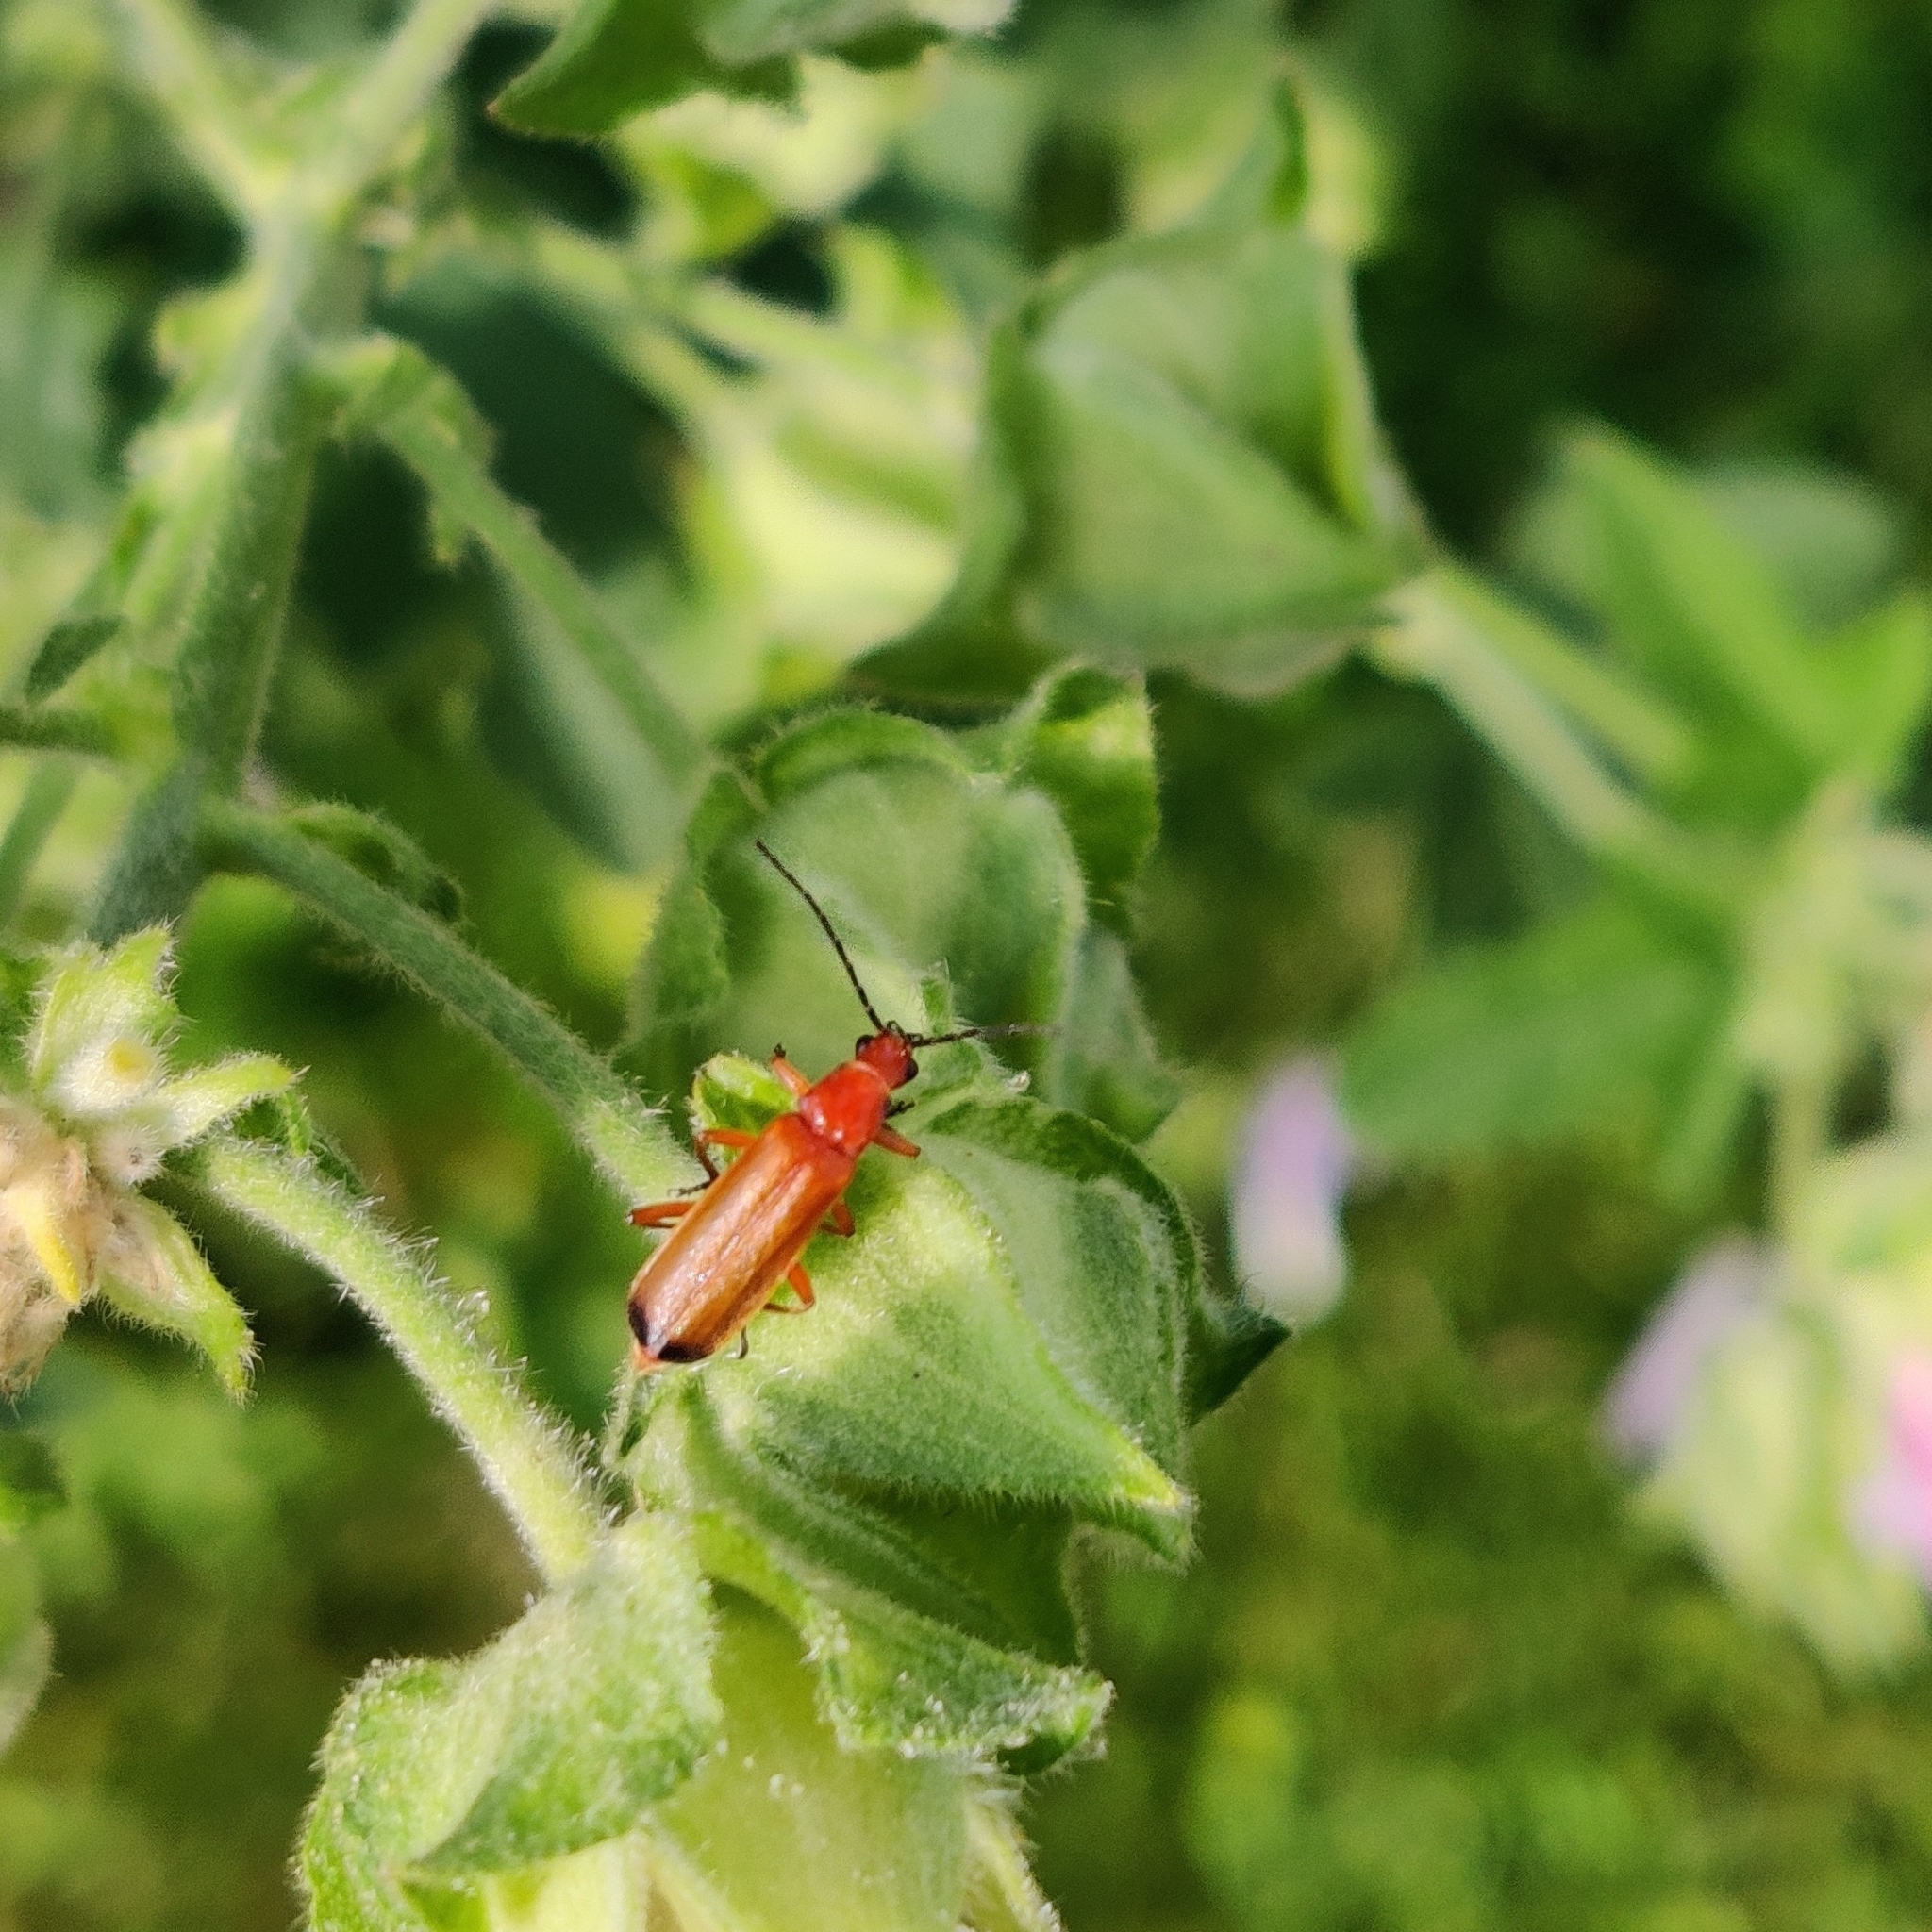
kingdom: Animalia
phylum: Arthropoda
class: Insecta
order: Coleoptera
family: Cantharidae
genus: Rhagonycha
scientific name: Rhagonycha fulva
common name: Common red soldier beetle
